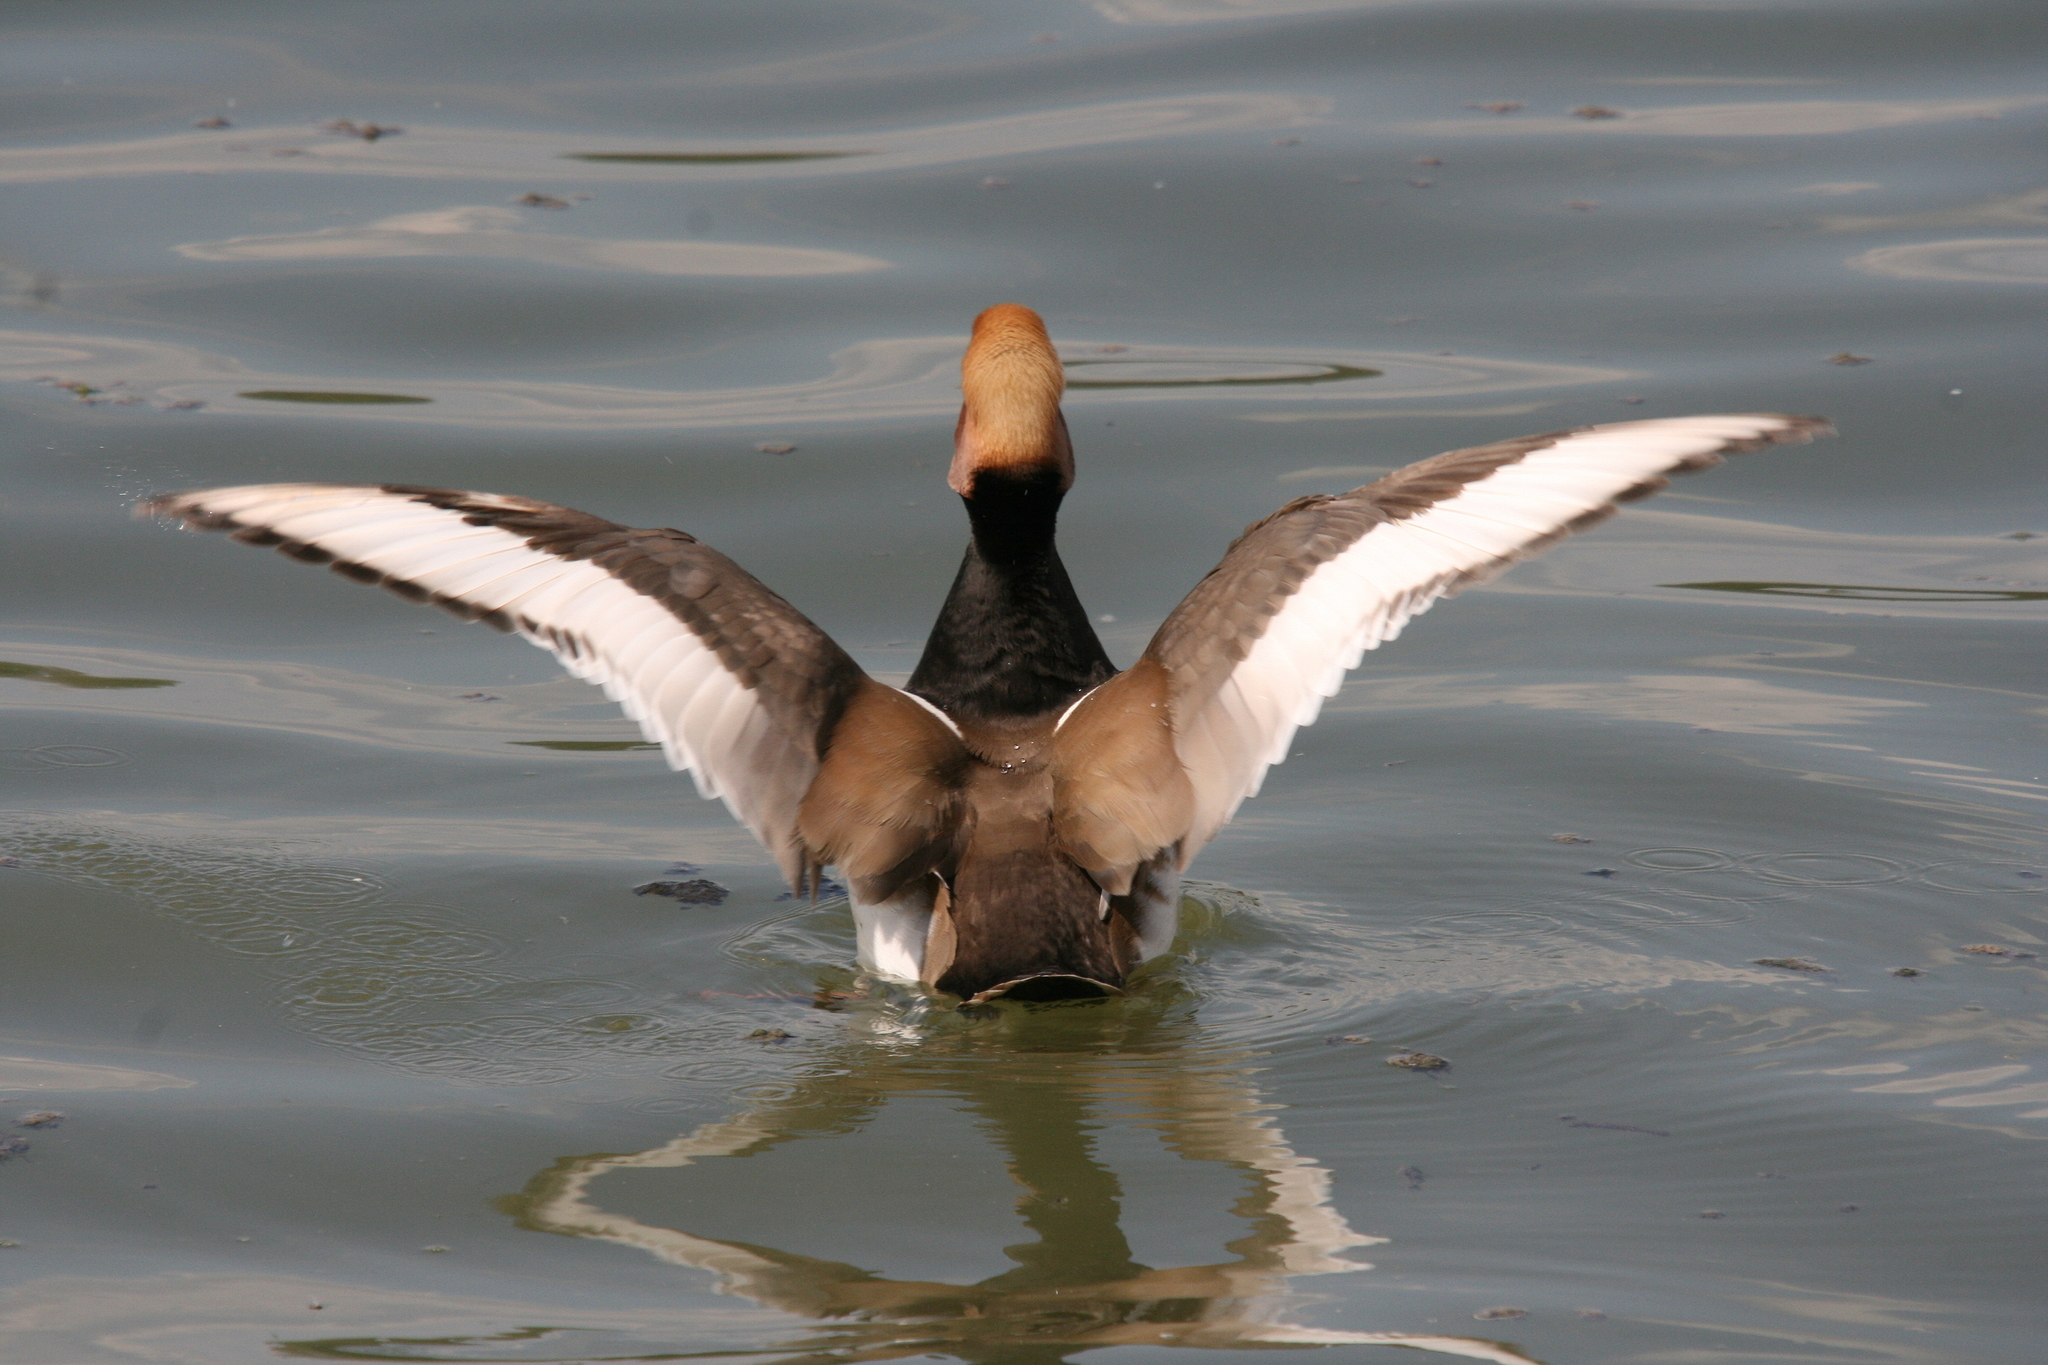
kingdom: Animalia
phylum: Chordata
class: Aves
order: Anseriformes
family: Anatidae
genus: Netta
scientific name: Netta rufina
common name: Red-crested pochard
